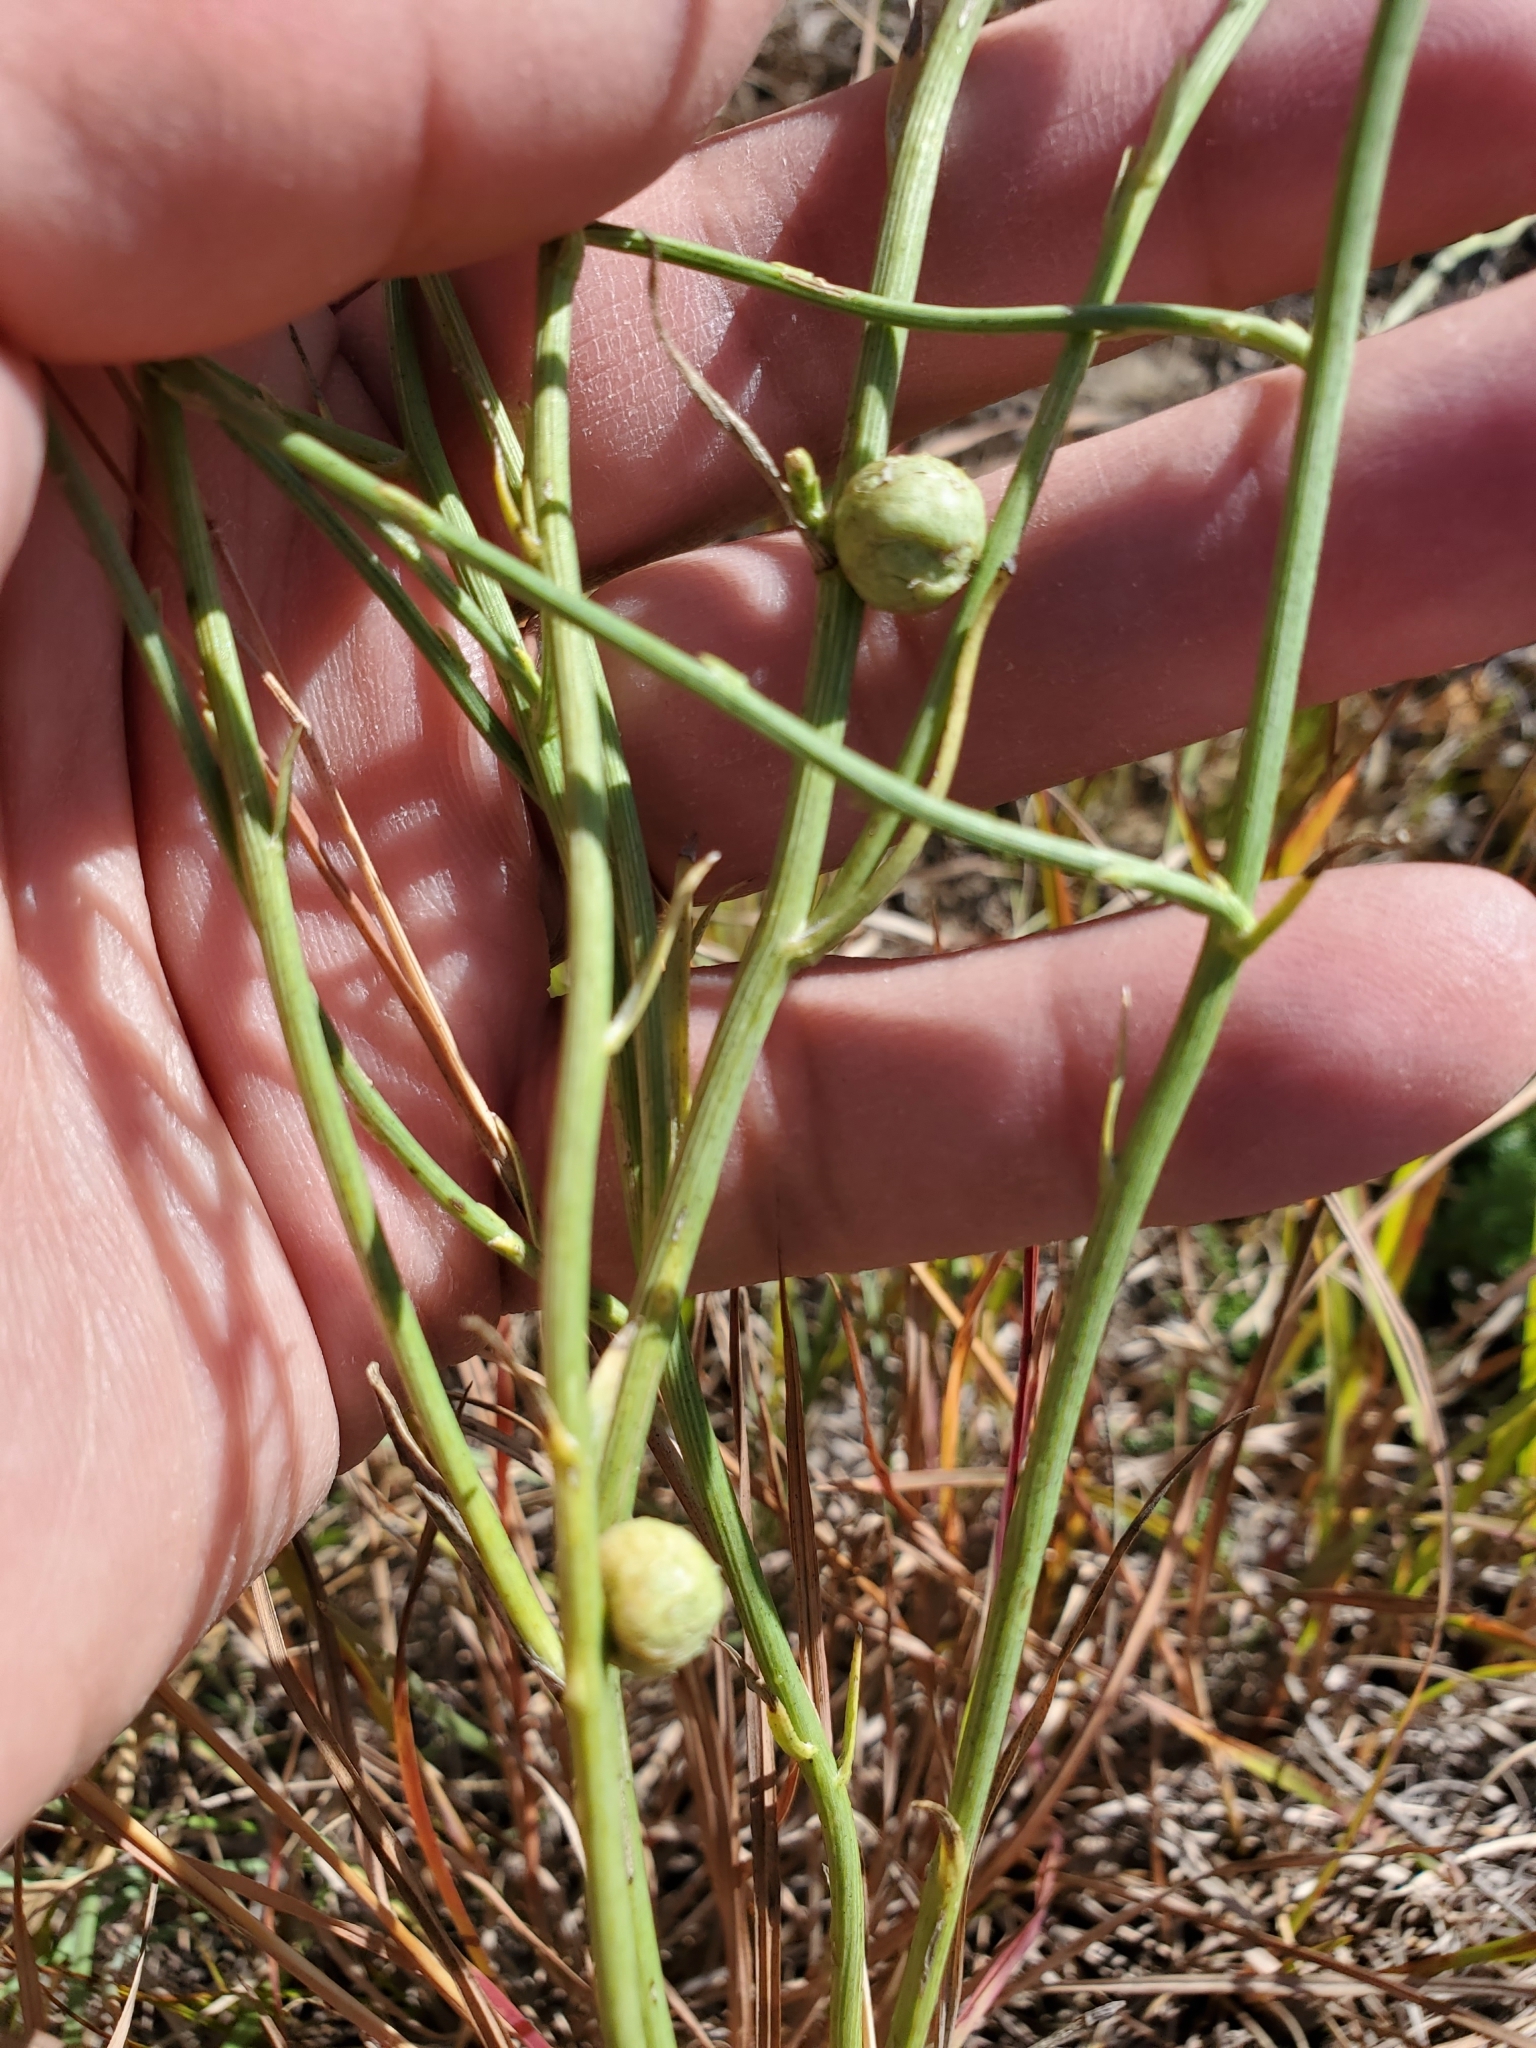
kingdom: Animalia
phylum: Arthropoda
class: Insecta
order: Hymenoptera
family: Cynipidae
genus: Antistrophus
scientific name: Antistrophus
